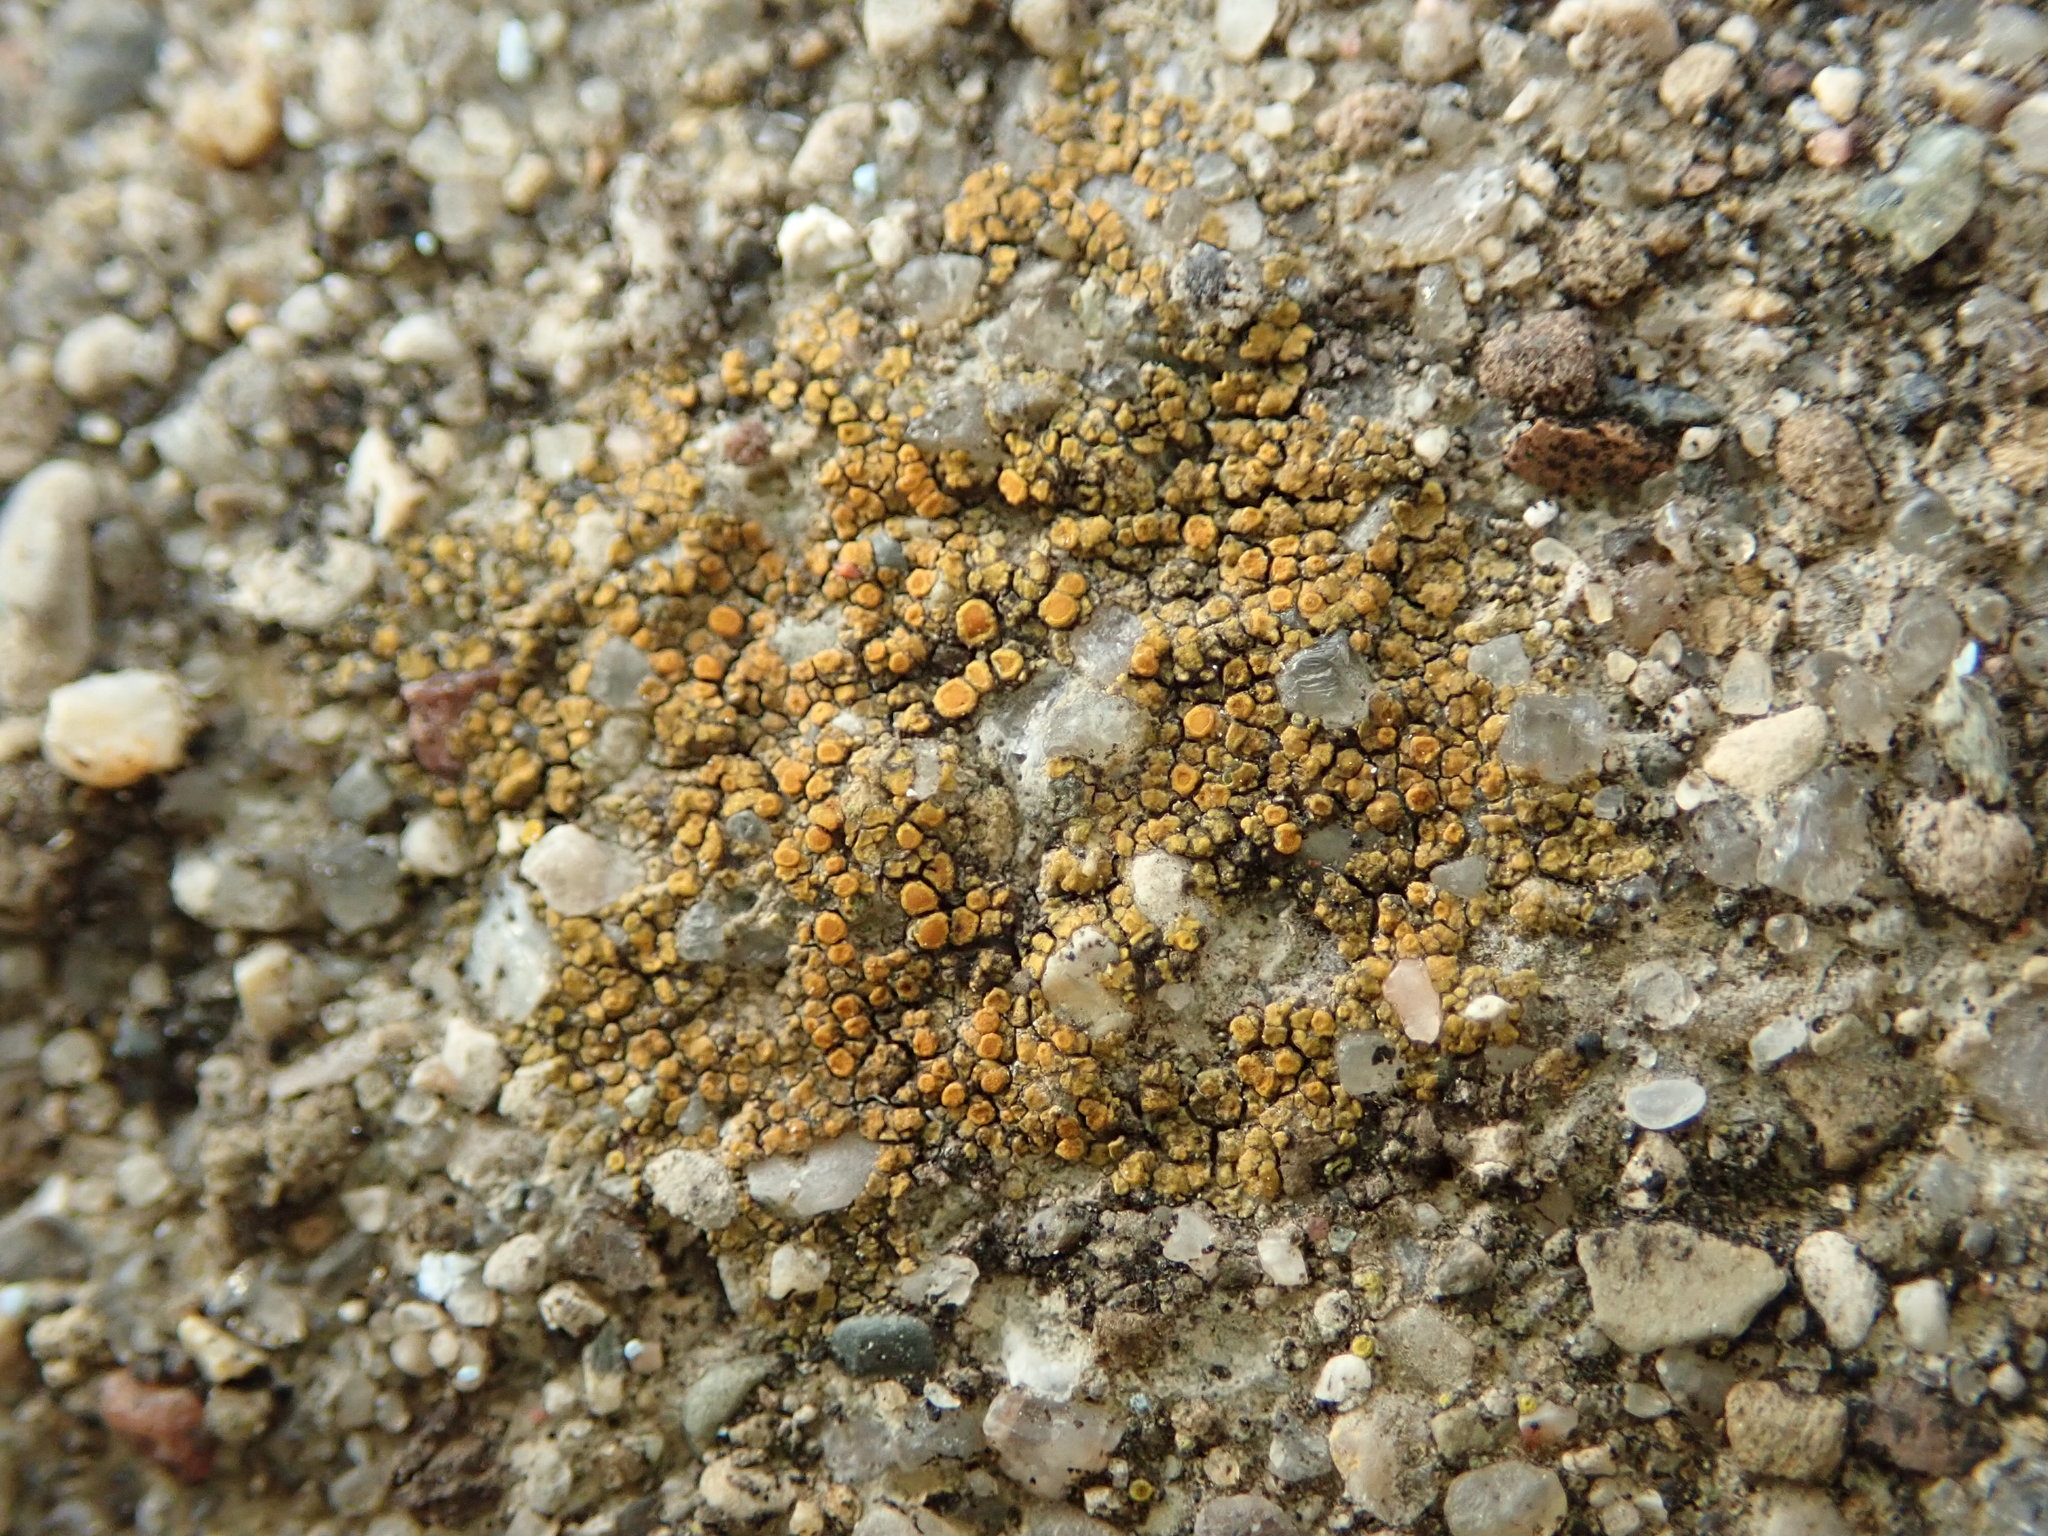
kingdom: Fungi
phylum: Ascomycota
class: Lecanoromycetes
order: Teloschistales
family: Teloschistaceae
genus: Xanthocarpia
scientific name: Xanthocarpia feracissima
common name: Sidewalk firedot
